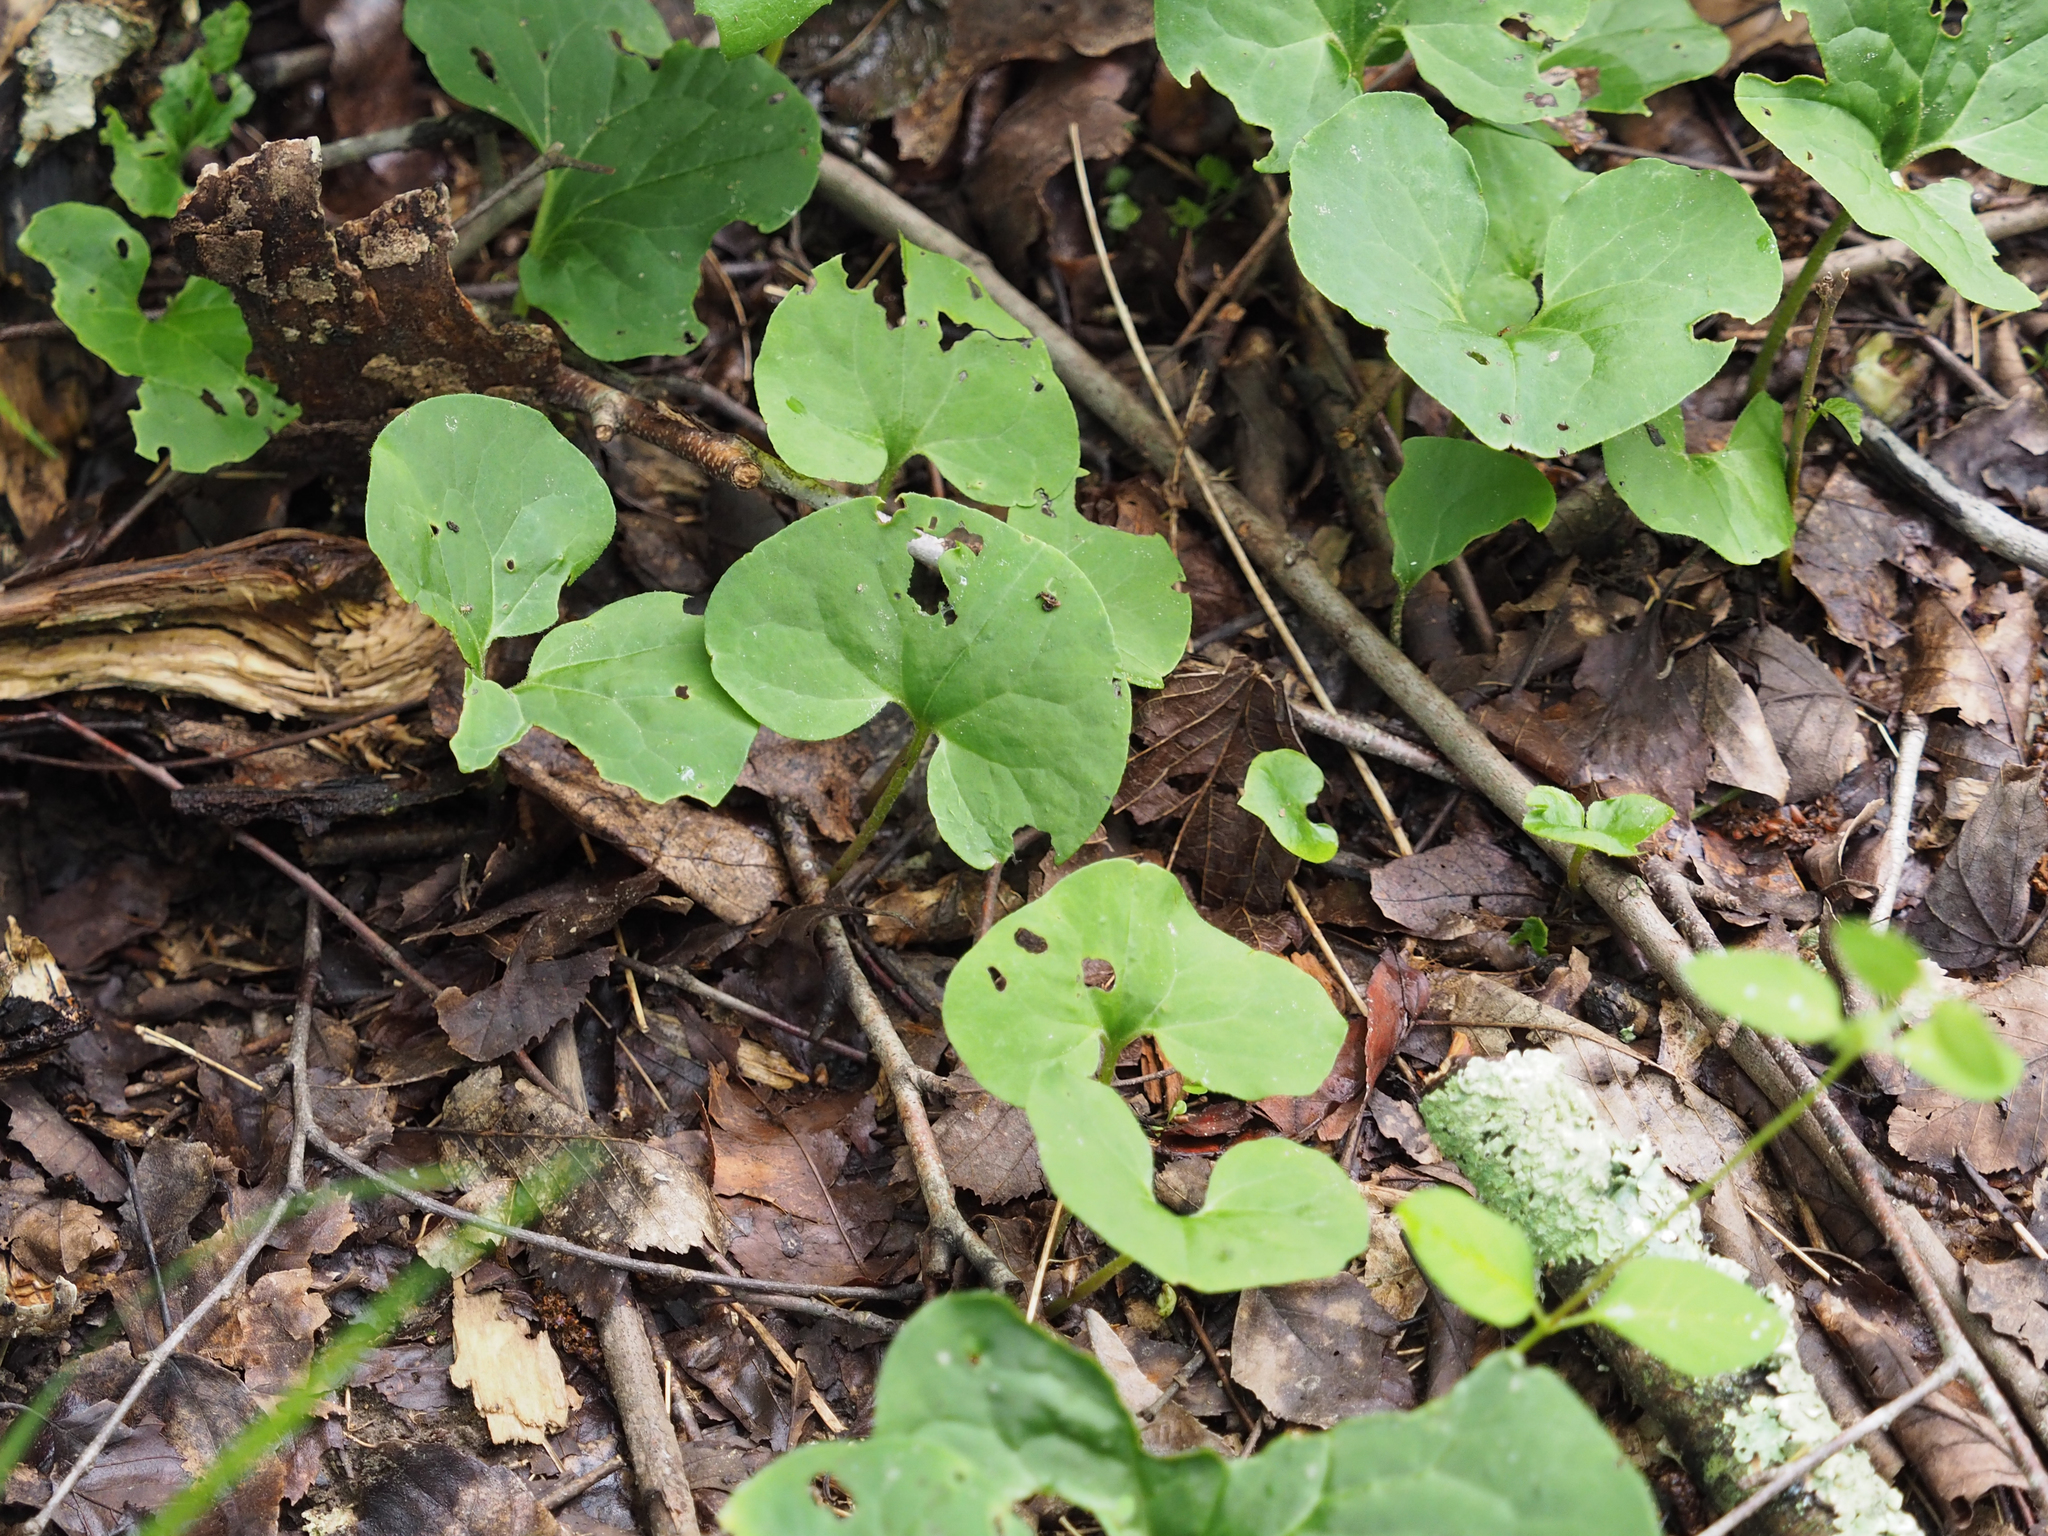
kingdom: Plantae
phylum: Tracheophyta
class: Magnoliopsida
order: Piperales
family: Aristolochiaceae
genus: Asarum
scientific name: Asarum canadense
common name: Wild ginger
